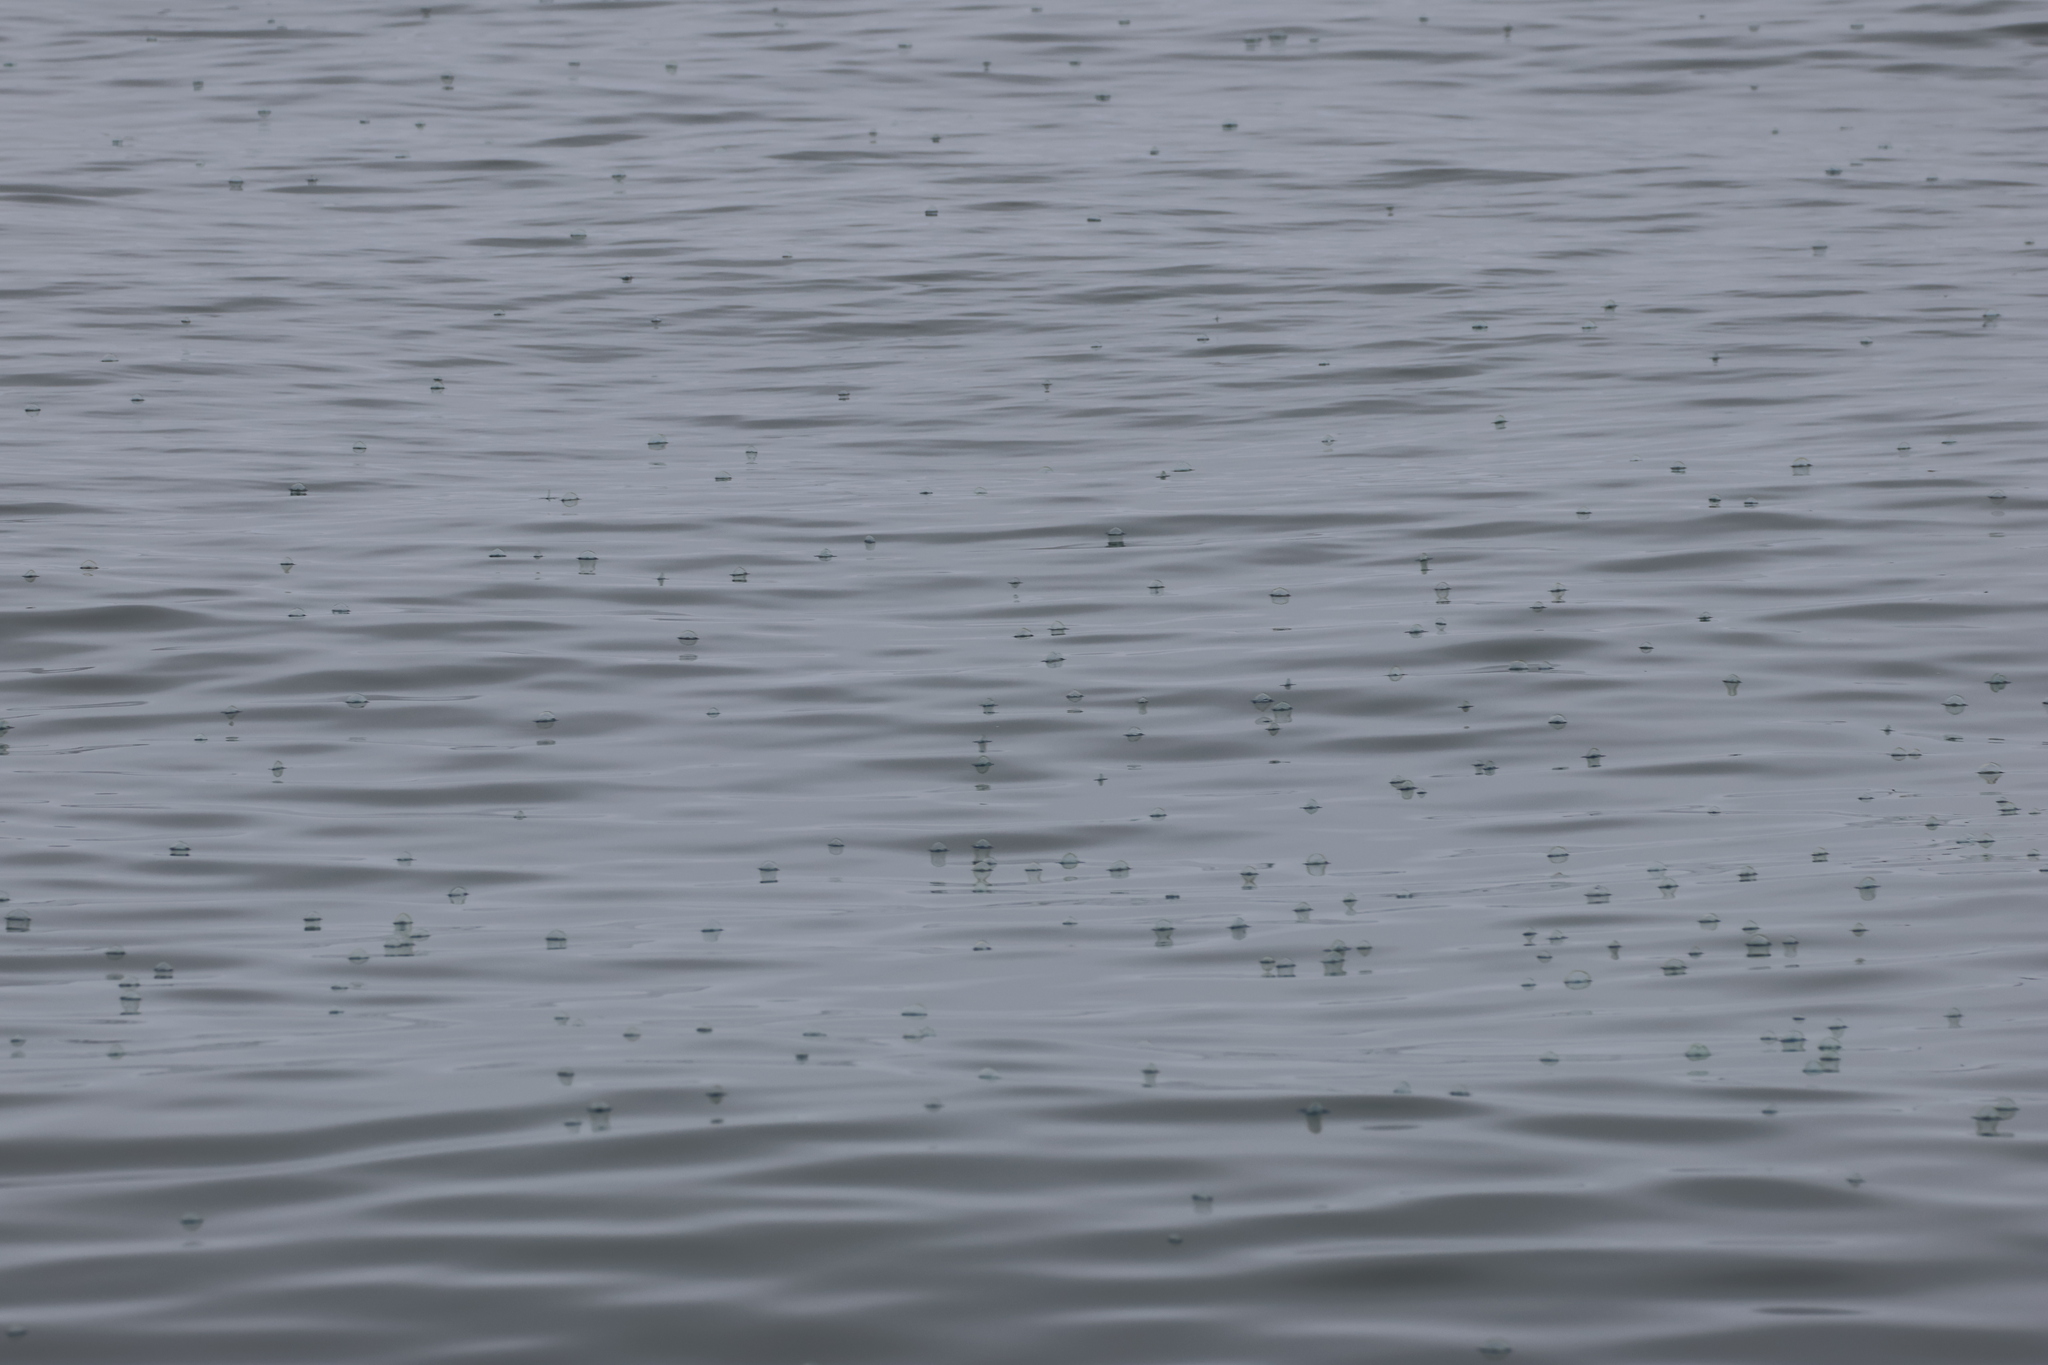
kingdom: Animalia
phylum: Cnidaria
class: Hydrozoa
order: Anthoathecata
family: Porpitidae
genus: Velella
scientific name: Velella velella
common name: By-the-wind-sailor
